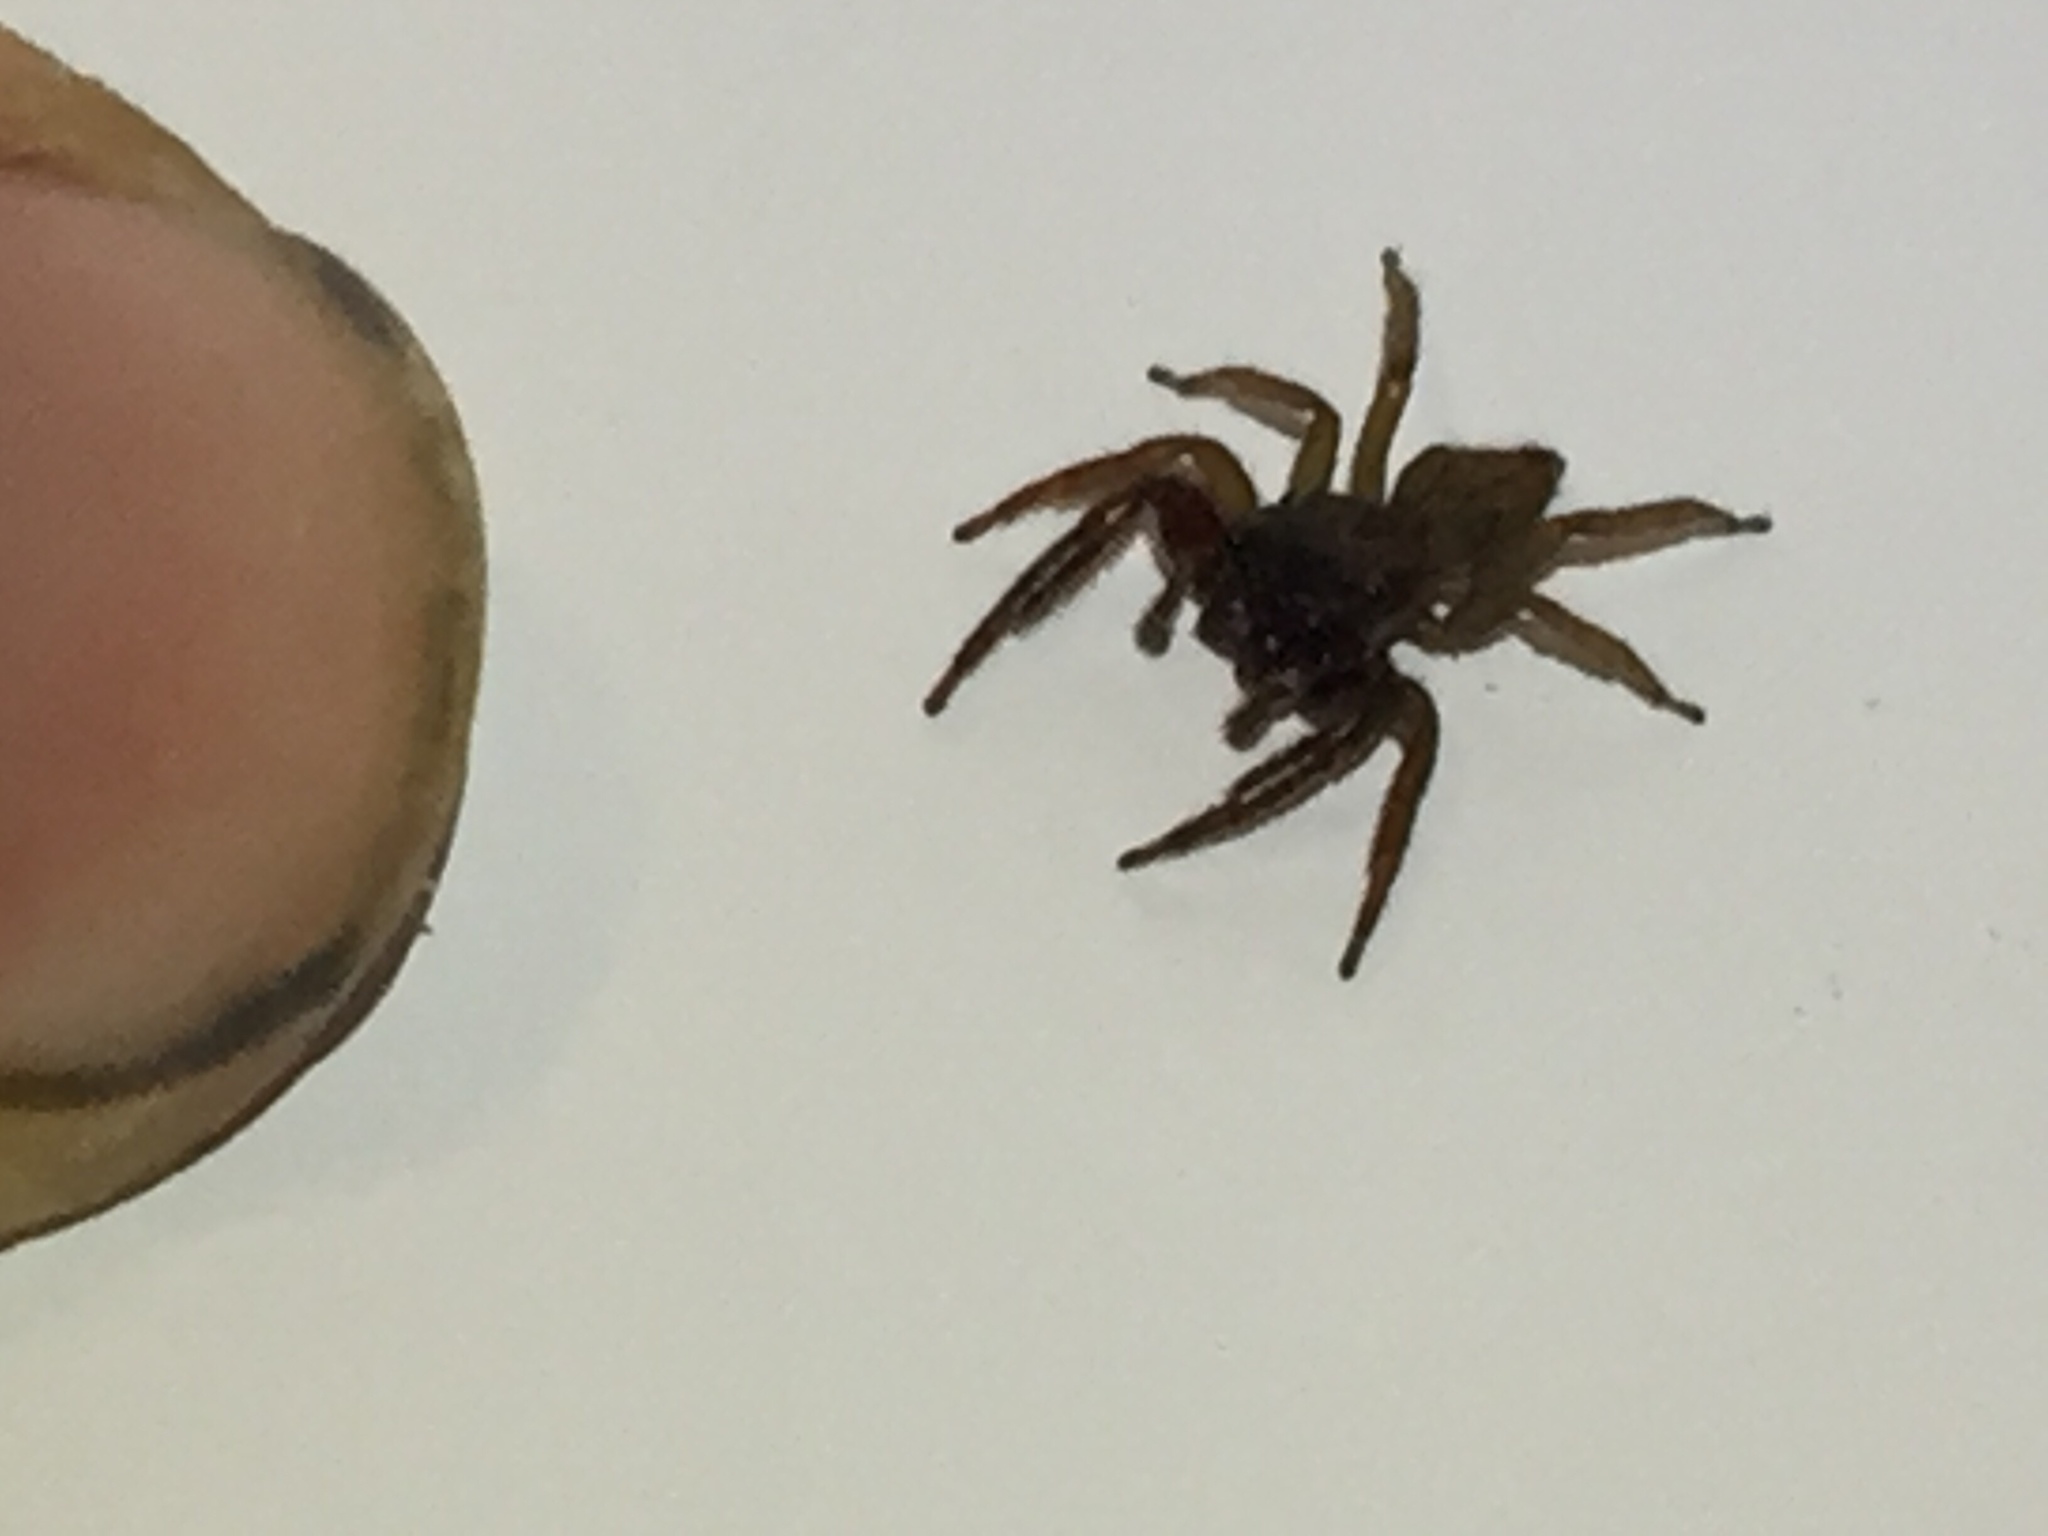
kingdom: Animalia
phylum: Arthropoda
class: Arachnida
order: Araneae
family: Salticidae
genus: Trite
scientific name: Trite auricoma
